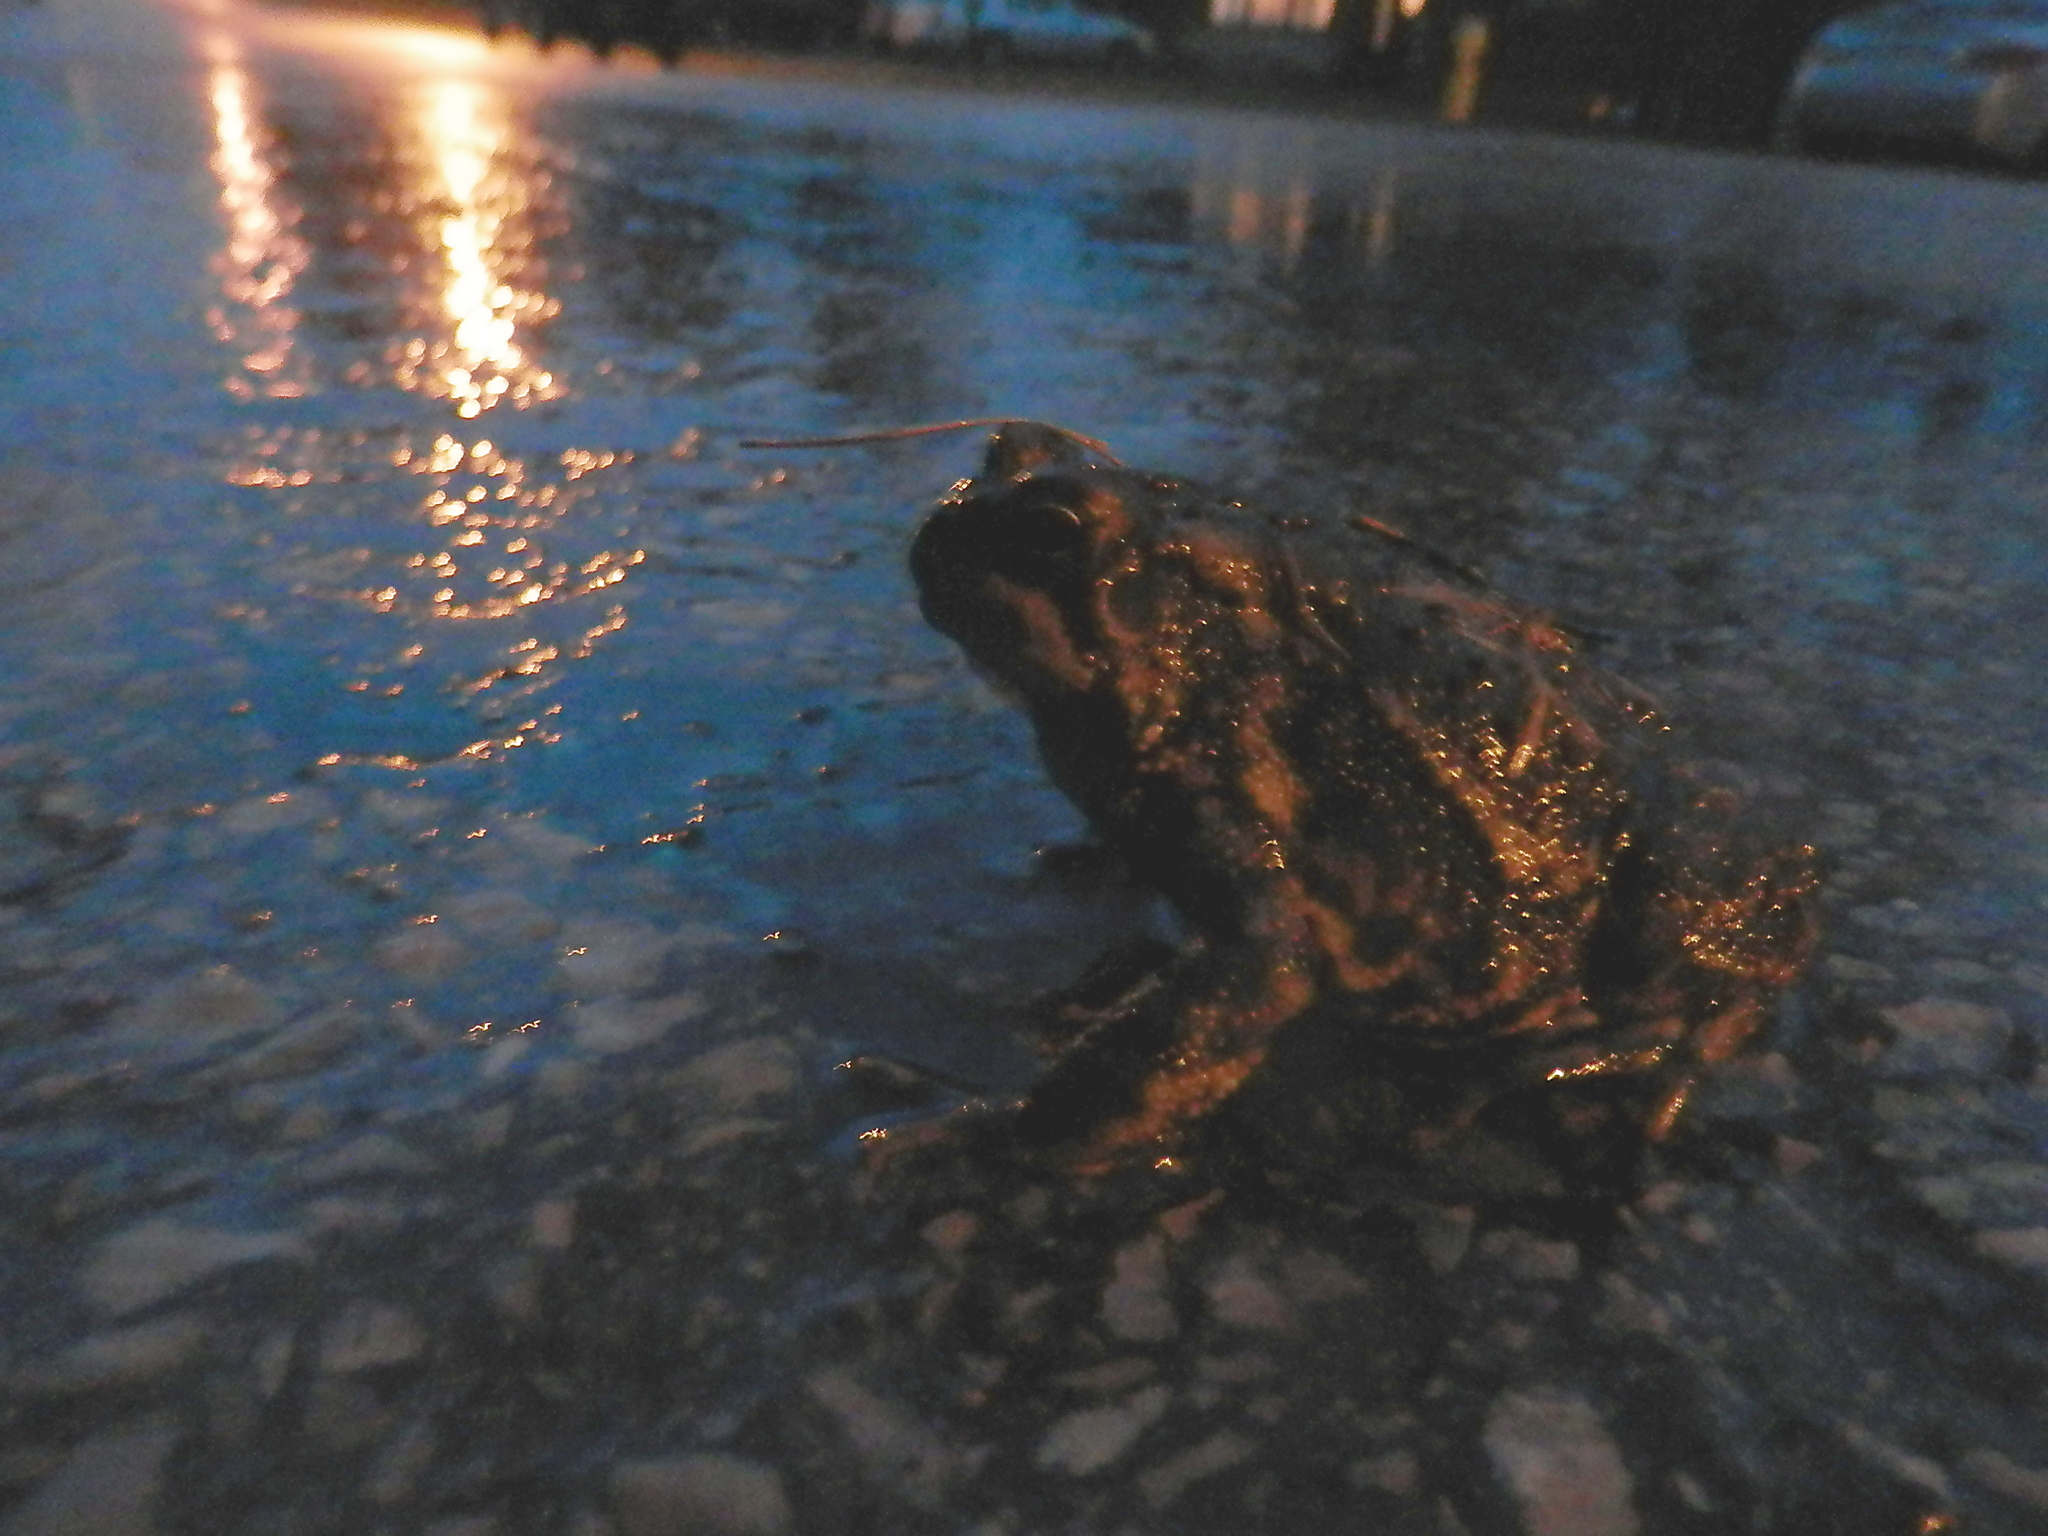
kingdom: Animalia
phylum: Chordata
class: Amphibia
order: Anura
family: Bufonidae
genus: Anaxyrus
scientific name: Anaxyrus americanus
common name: American toad
